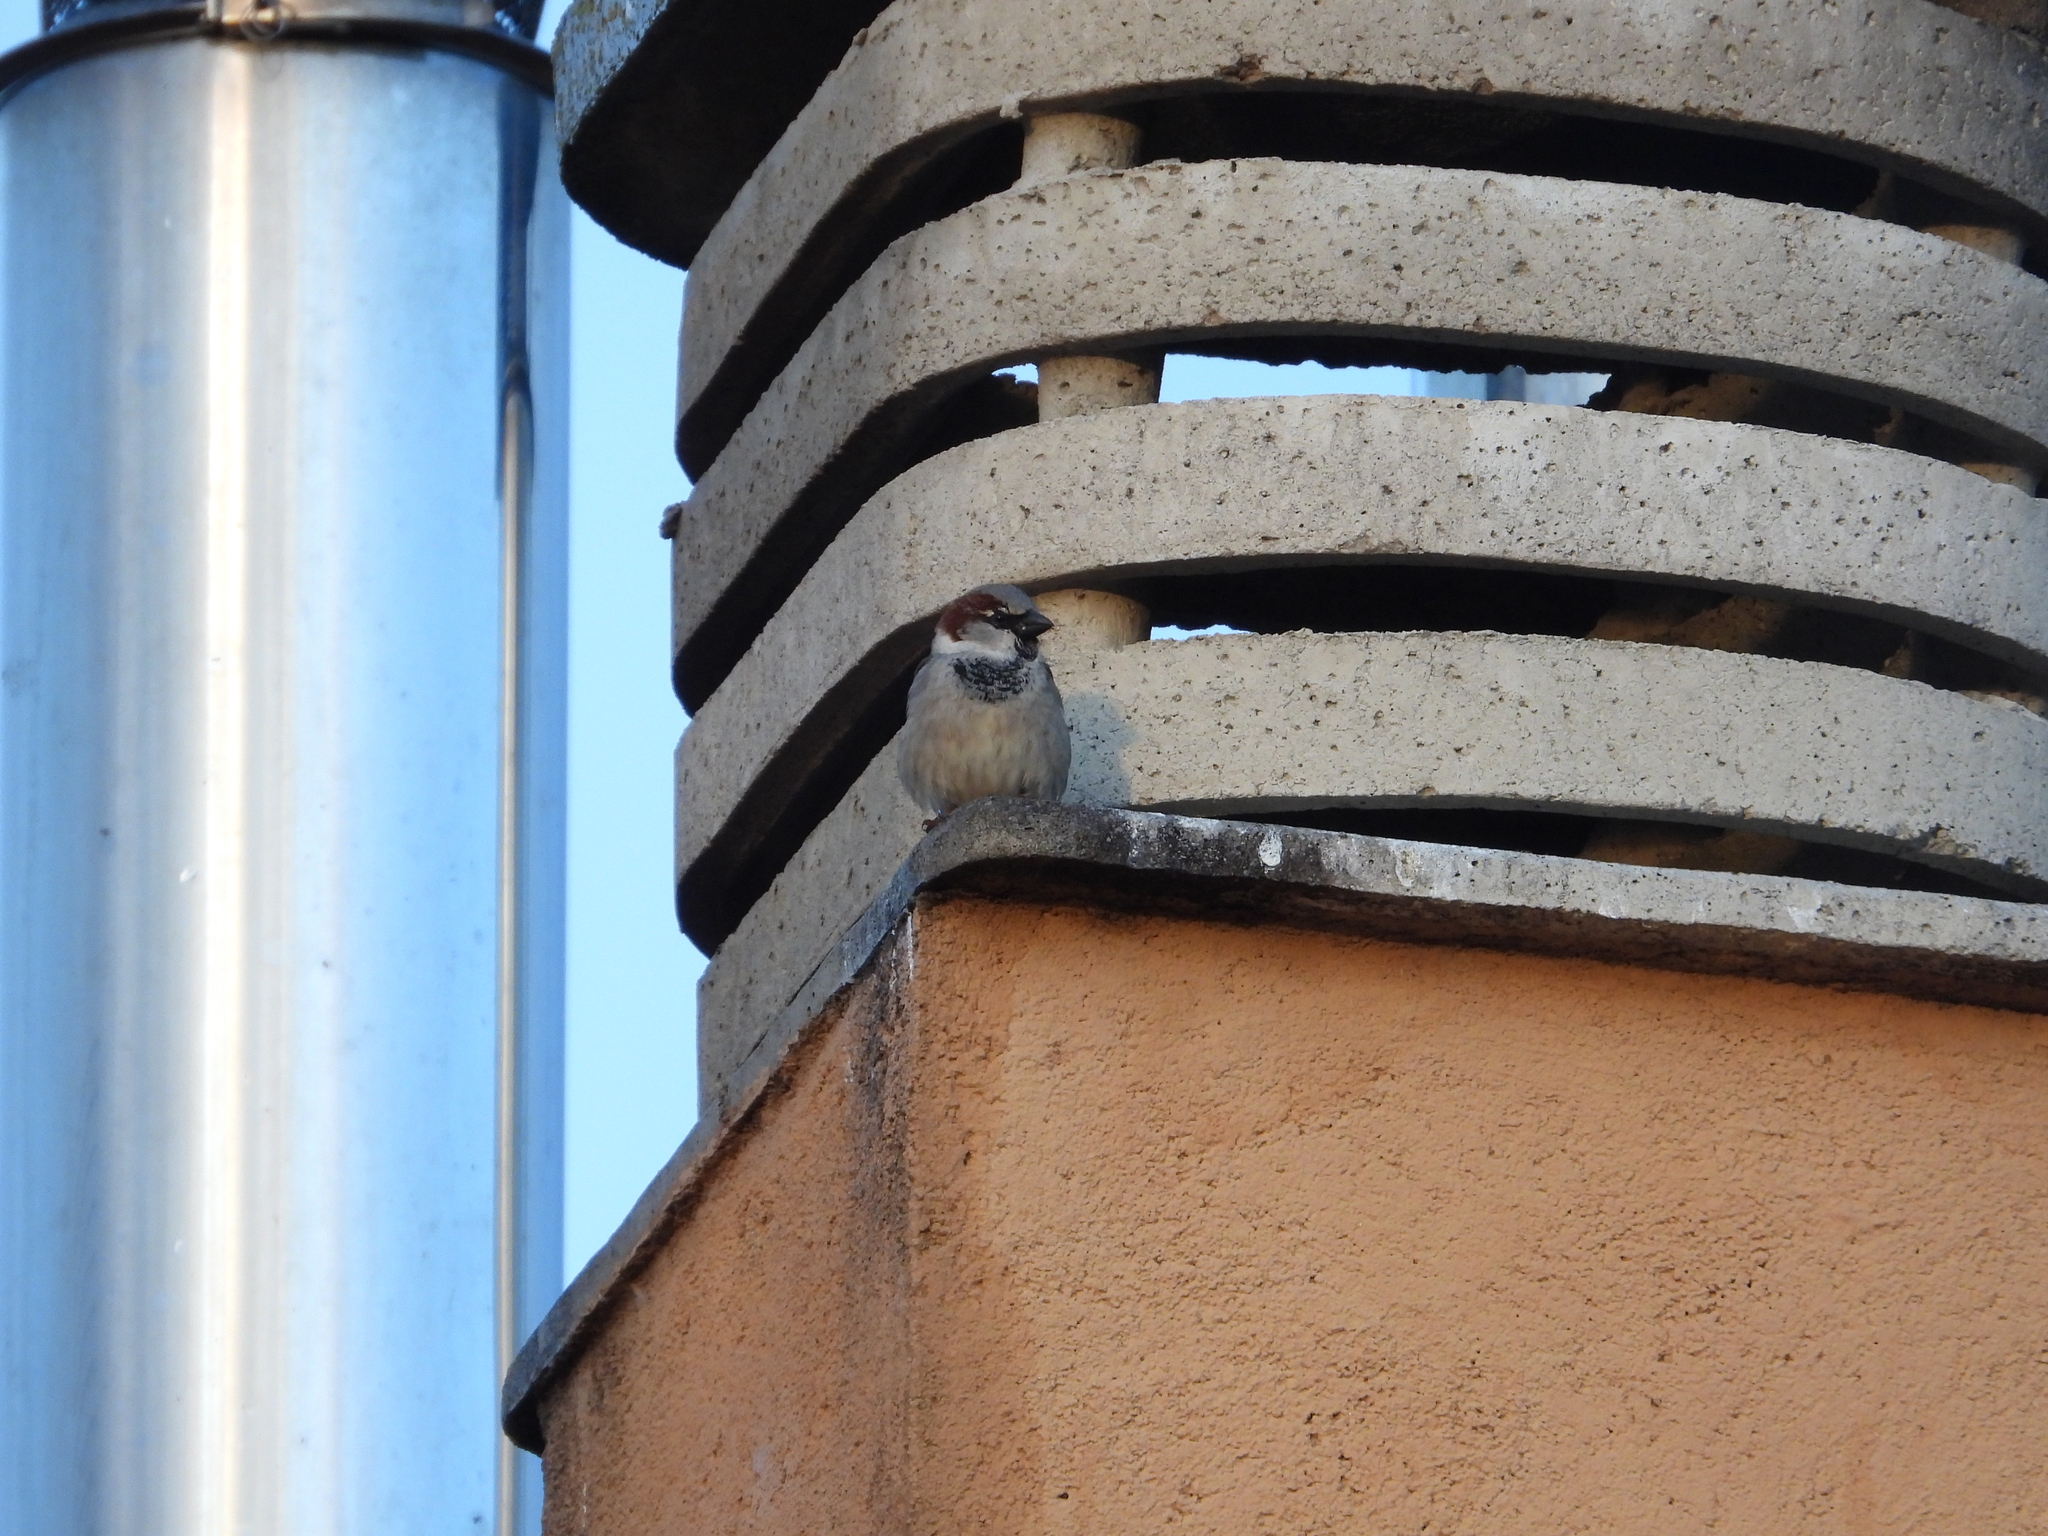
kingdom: Animalia
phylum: Chordata
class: Aves
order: Passeriformes
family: Passeridae
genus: Passer
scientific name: Passer domesticus
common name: House sparrow
